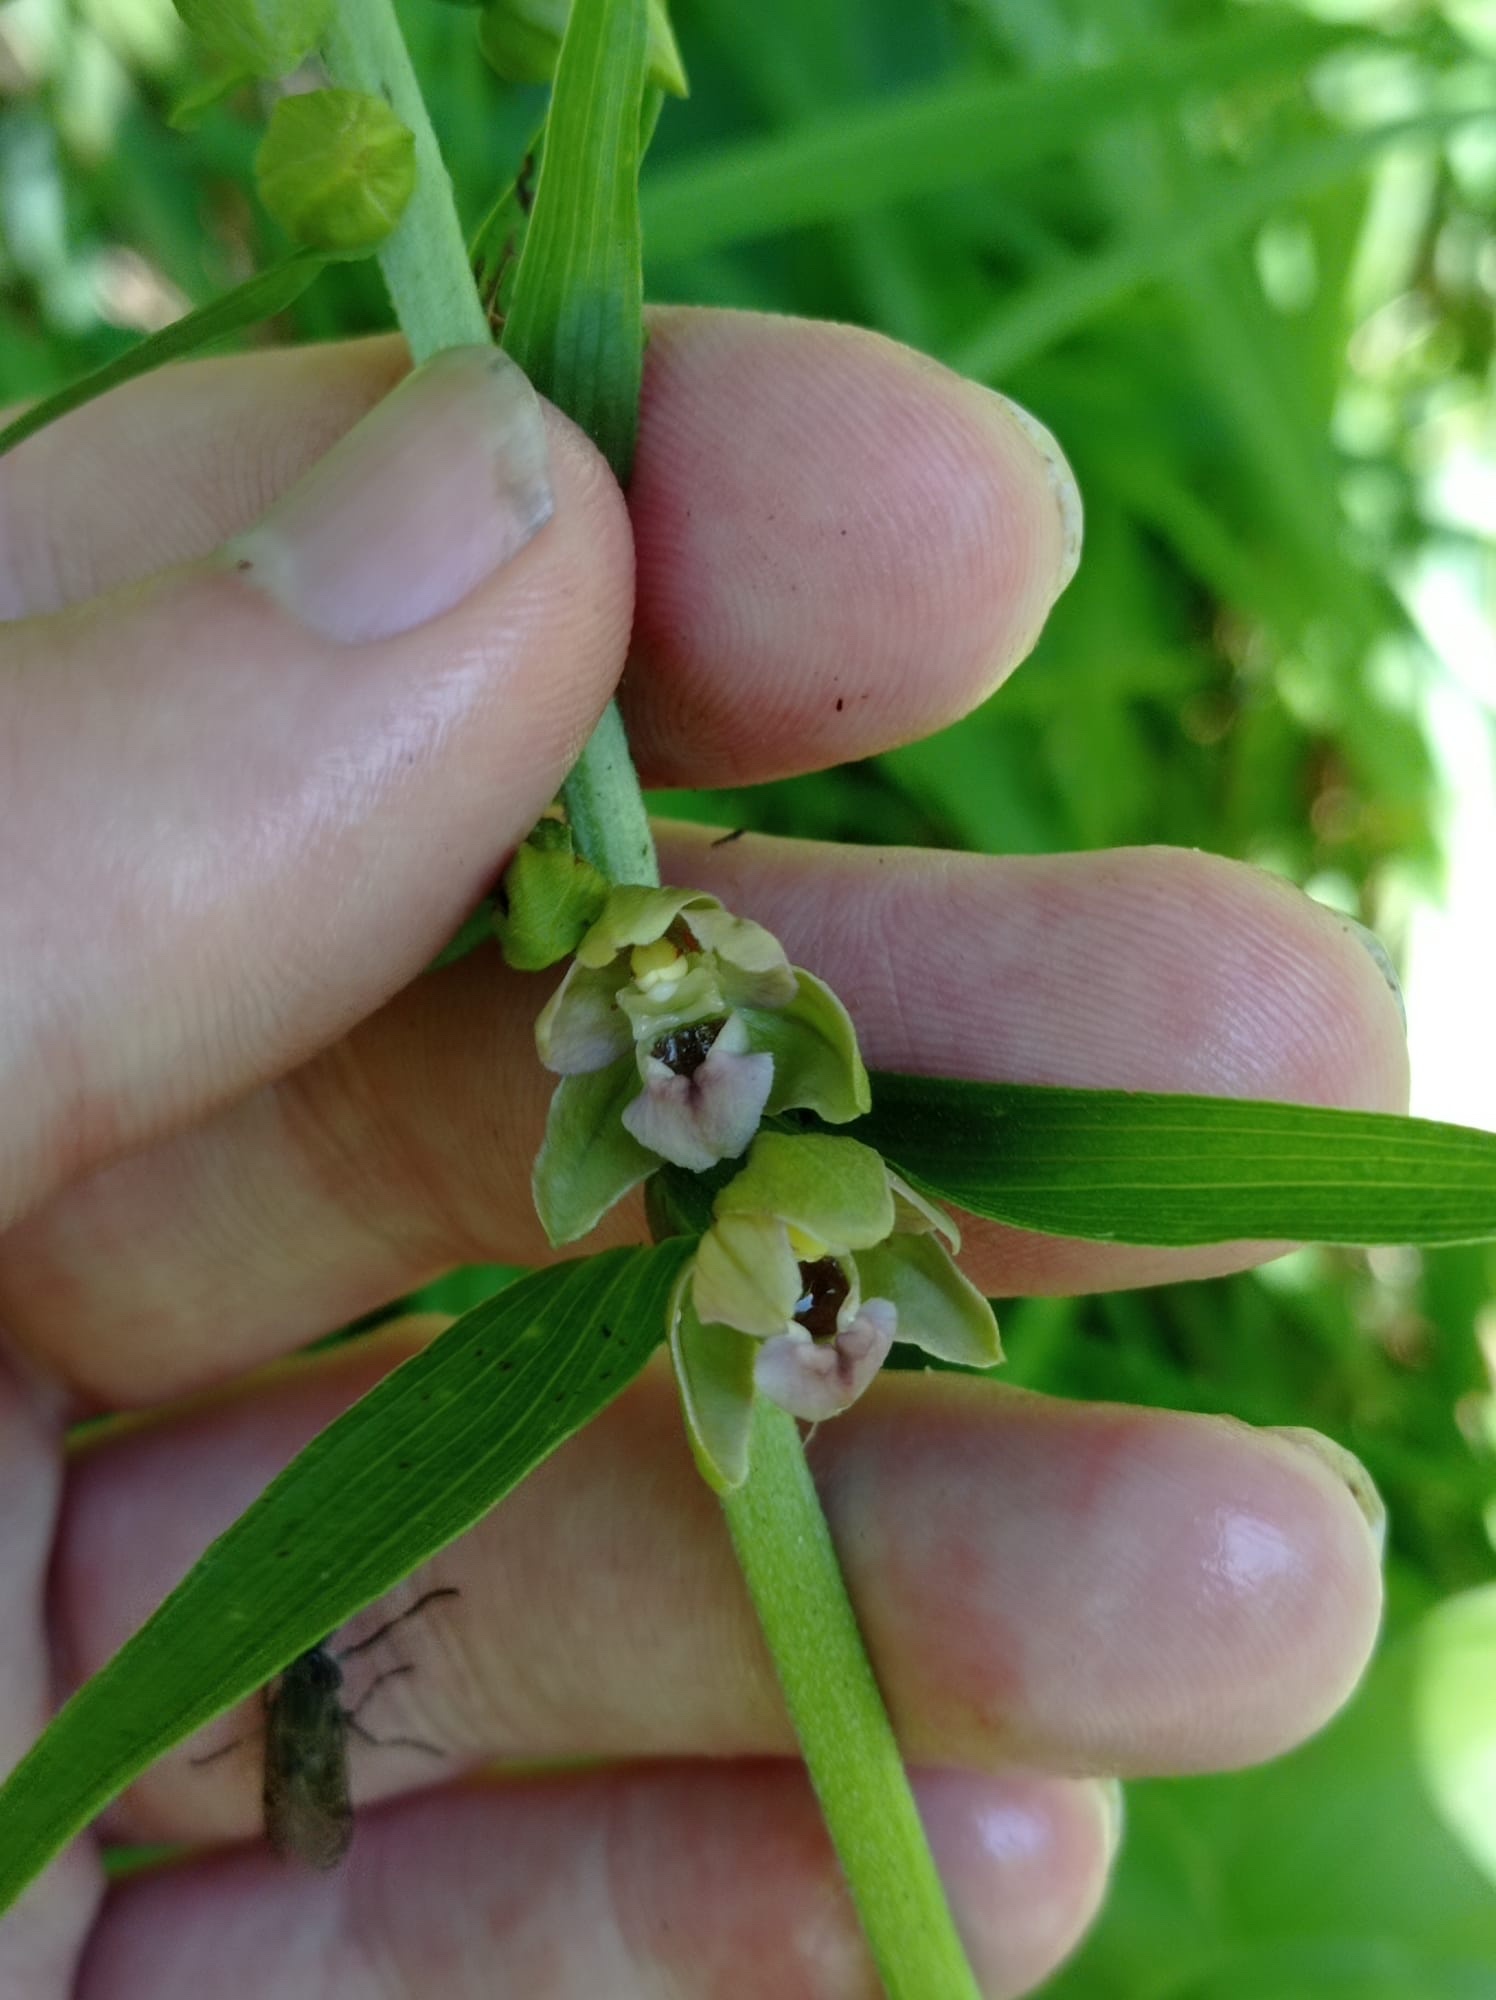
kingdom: Plantae
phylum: Tracheophyta
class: Liliopsida
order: Asparagales
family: Orchidaceae
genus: Epipactis
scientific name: Epipactis helleborine
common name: Broad-leaved helleborine
